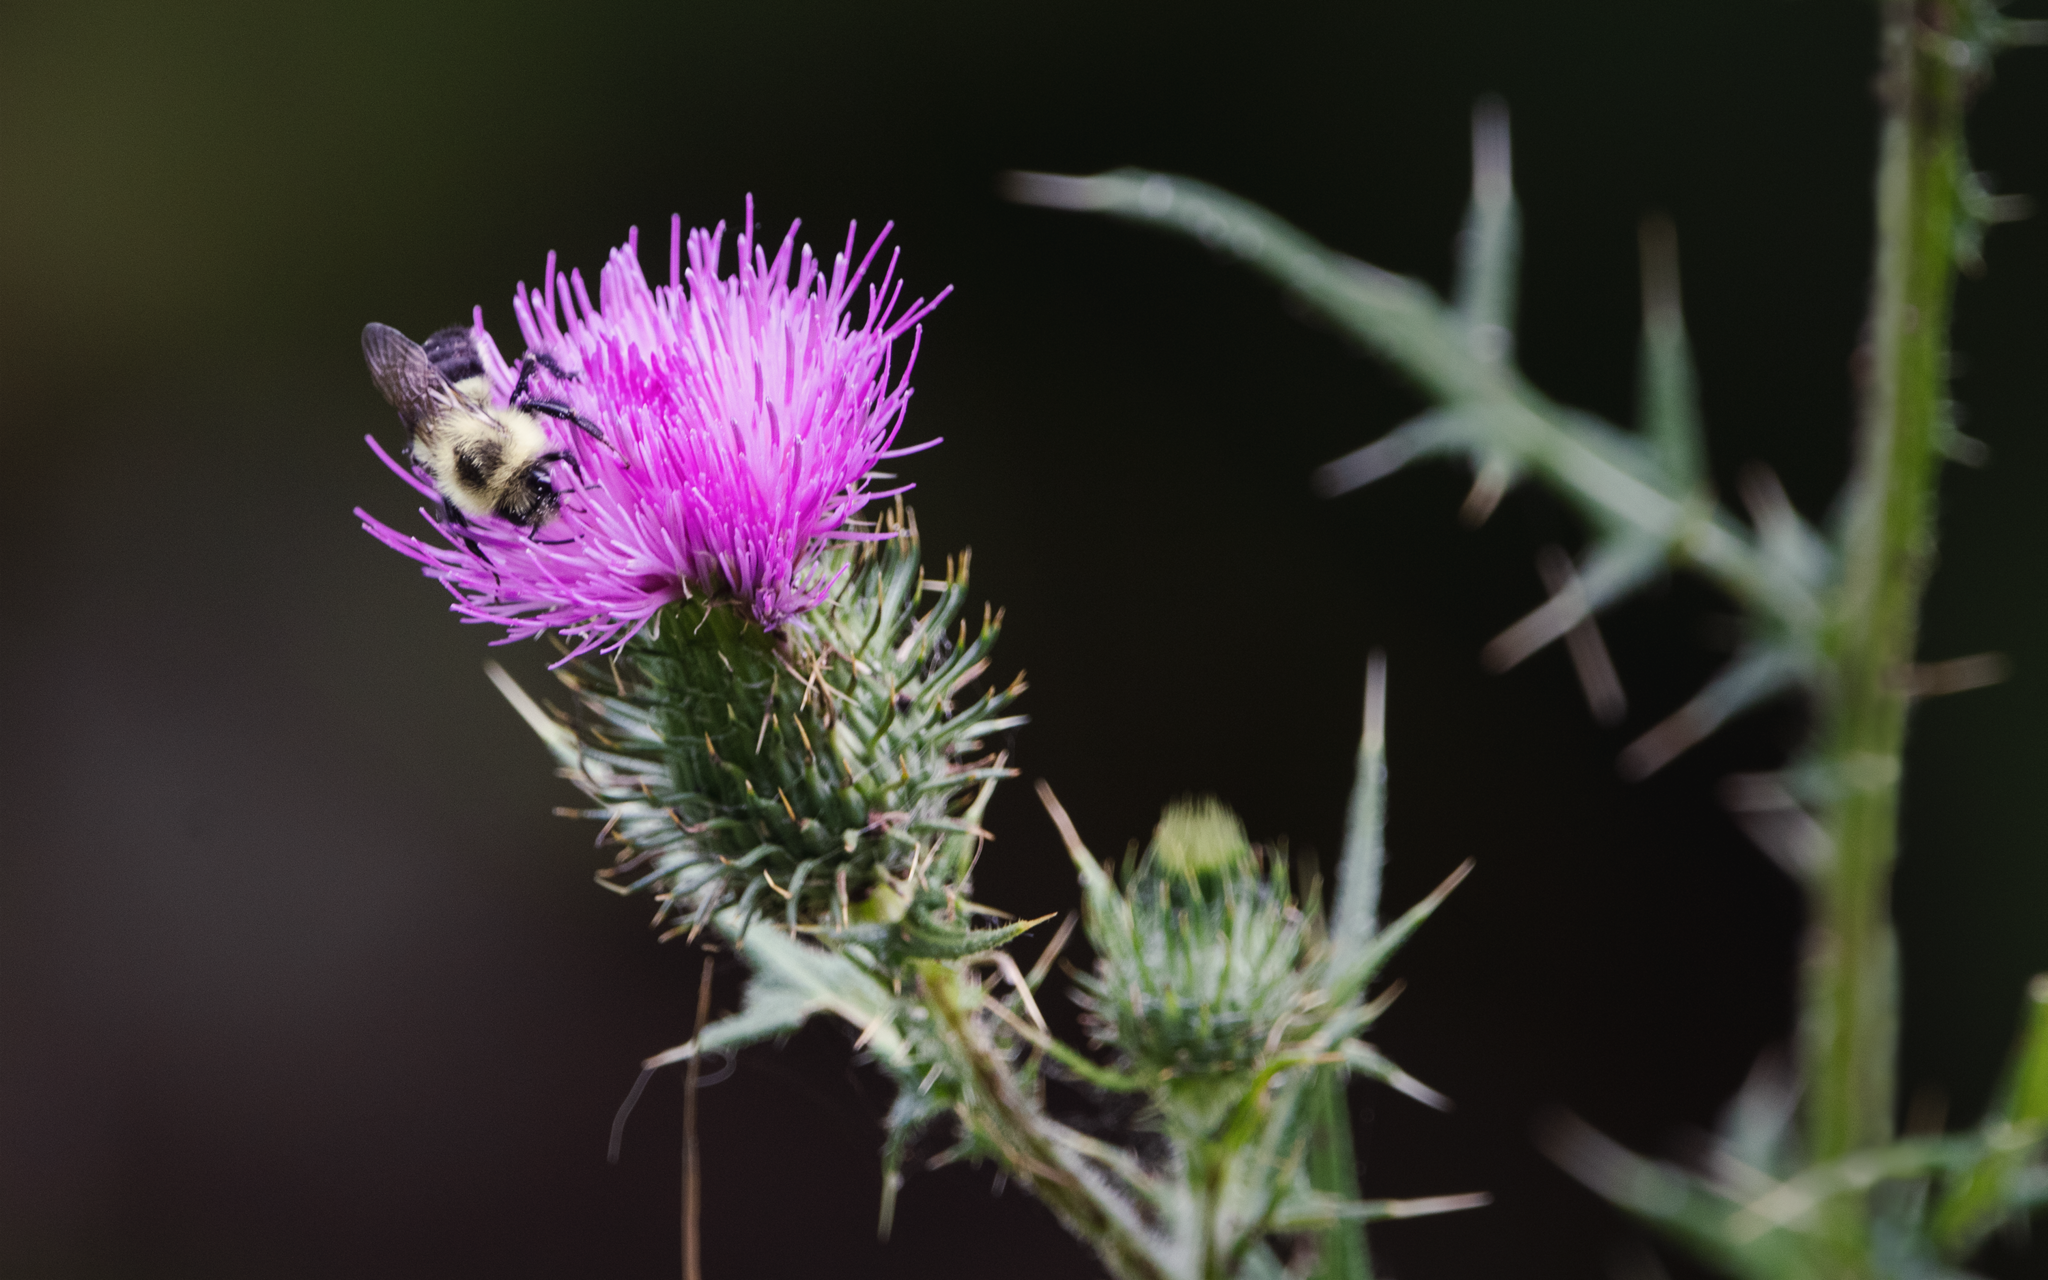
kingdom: Plantae
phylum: Tracheophyta
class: Magnoliopsida
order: Asterales
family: Asteraceae
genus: Cirsium
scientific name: Cirsium vulgare
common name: Bull thistle
